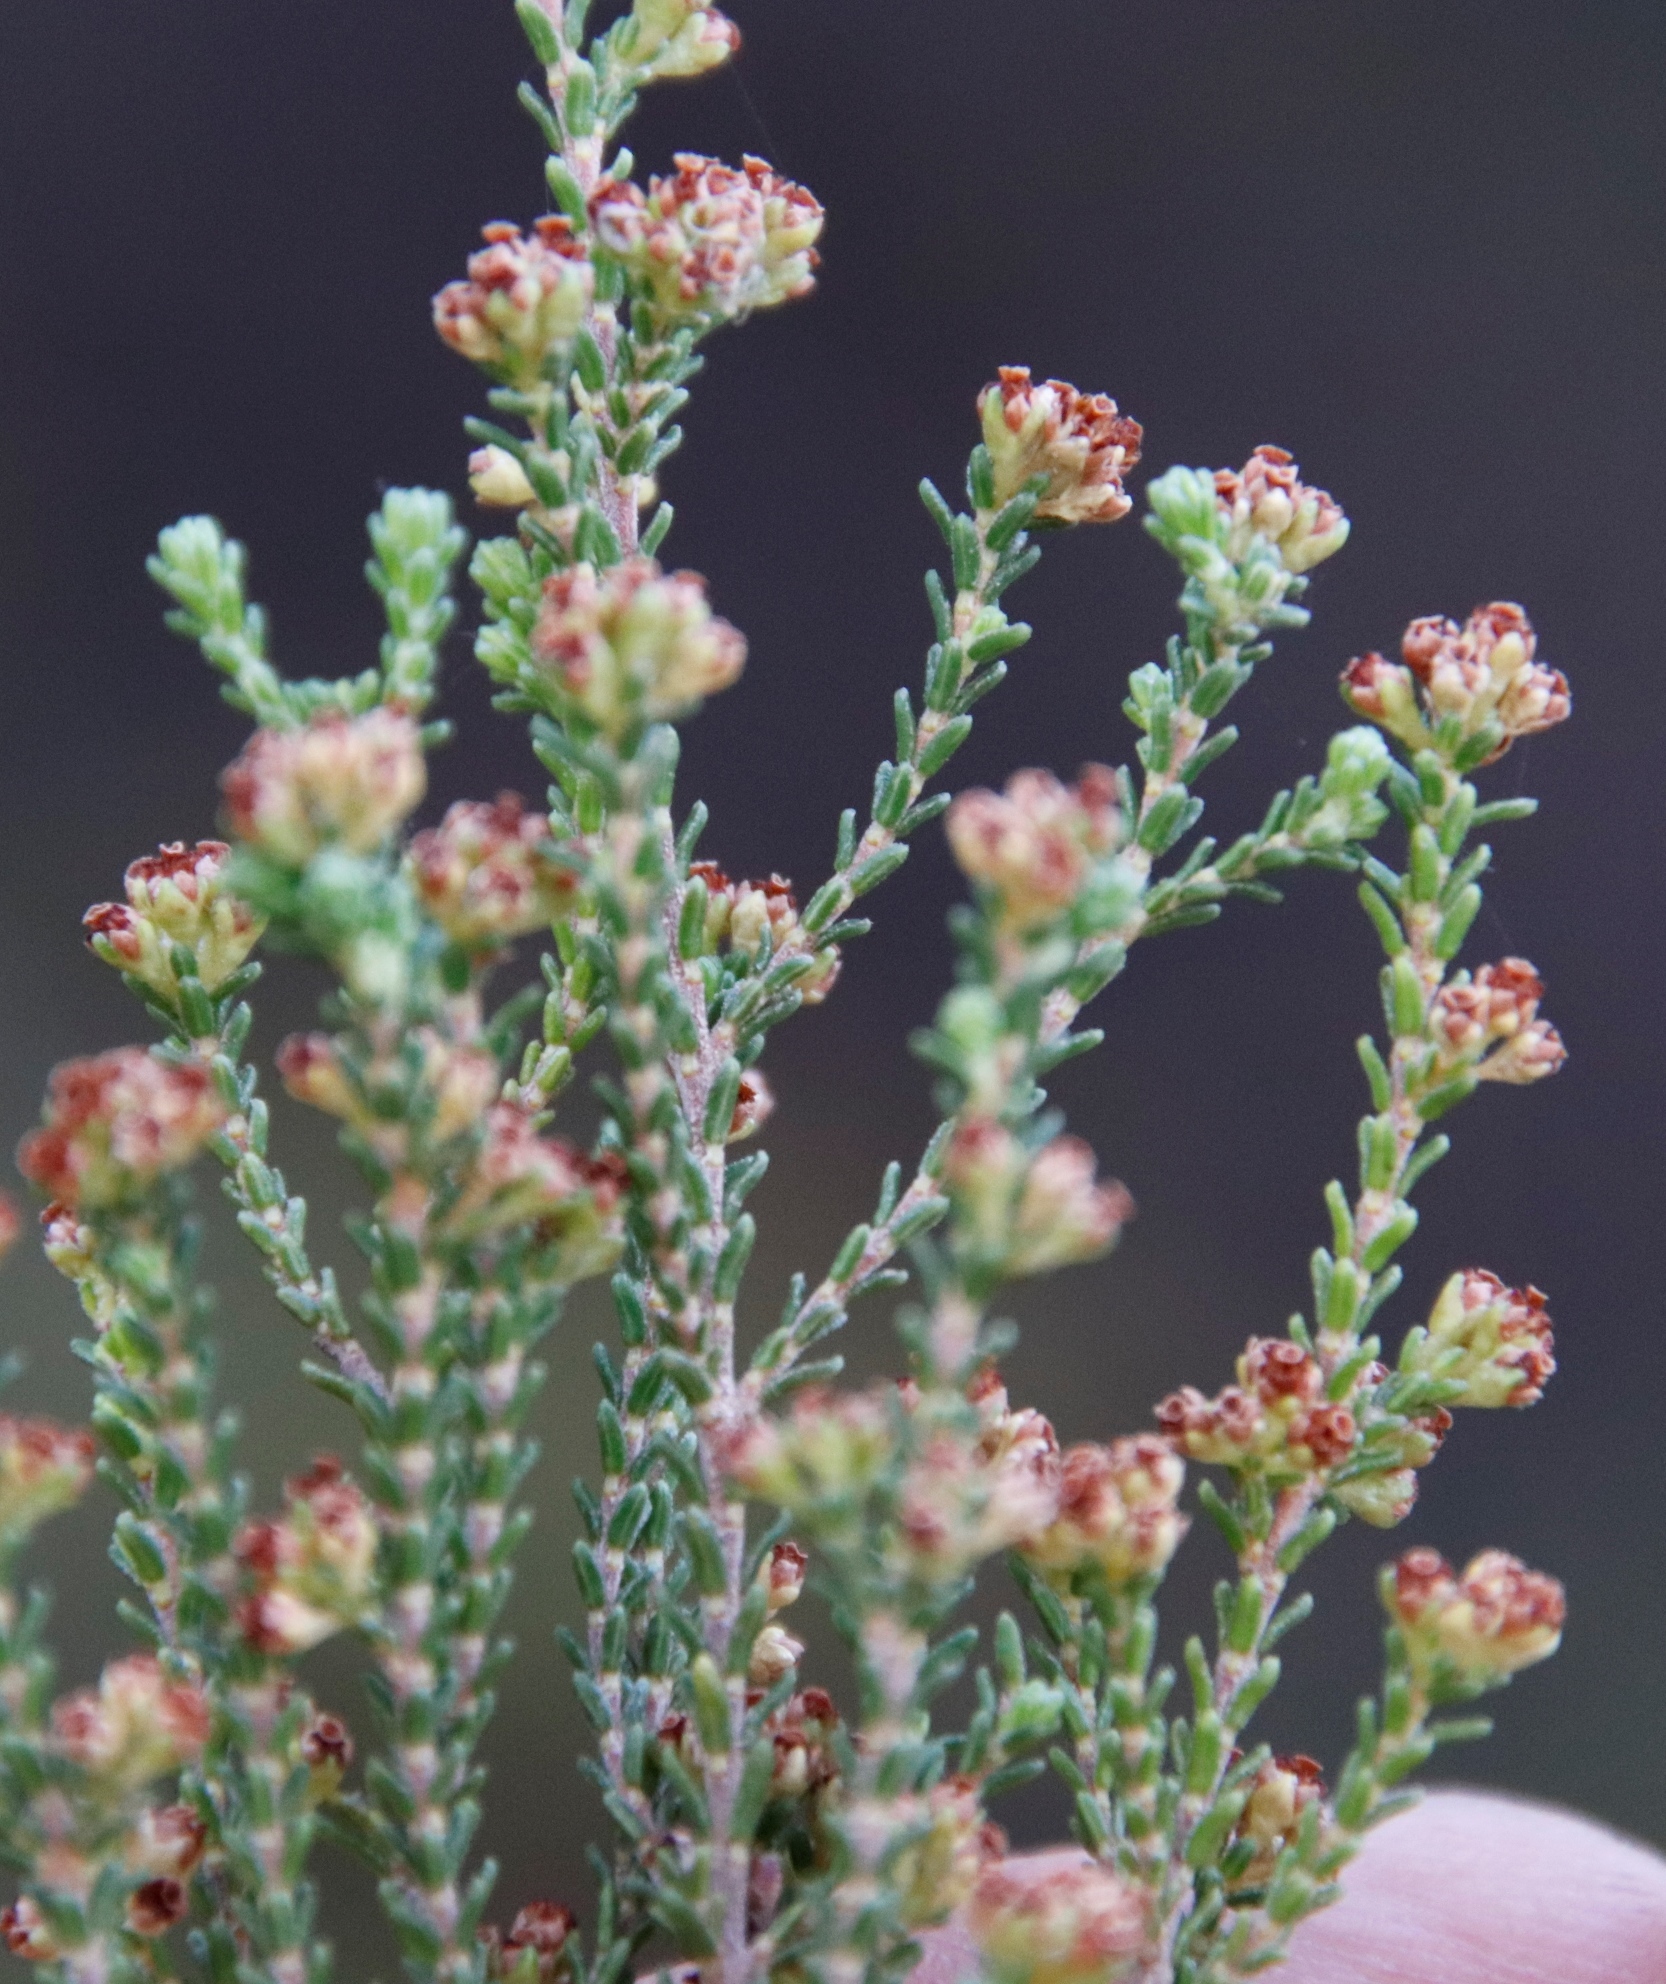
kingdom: Plantae
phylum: Tracheophyta
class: Magnoliopsida
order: Ericales
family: Ericaceae
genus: Erica
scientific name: Erica tristis
